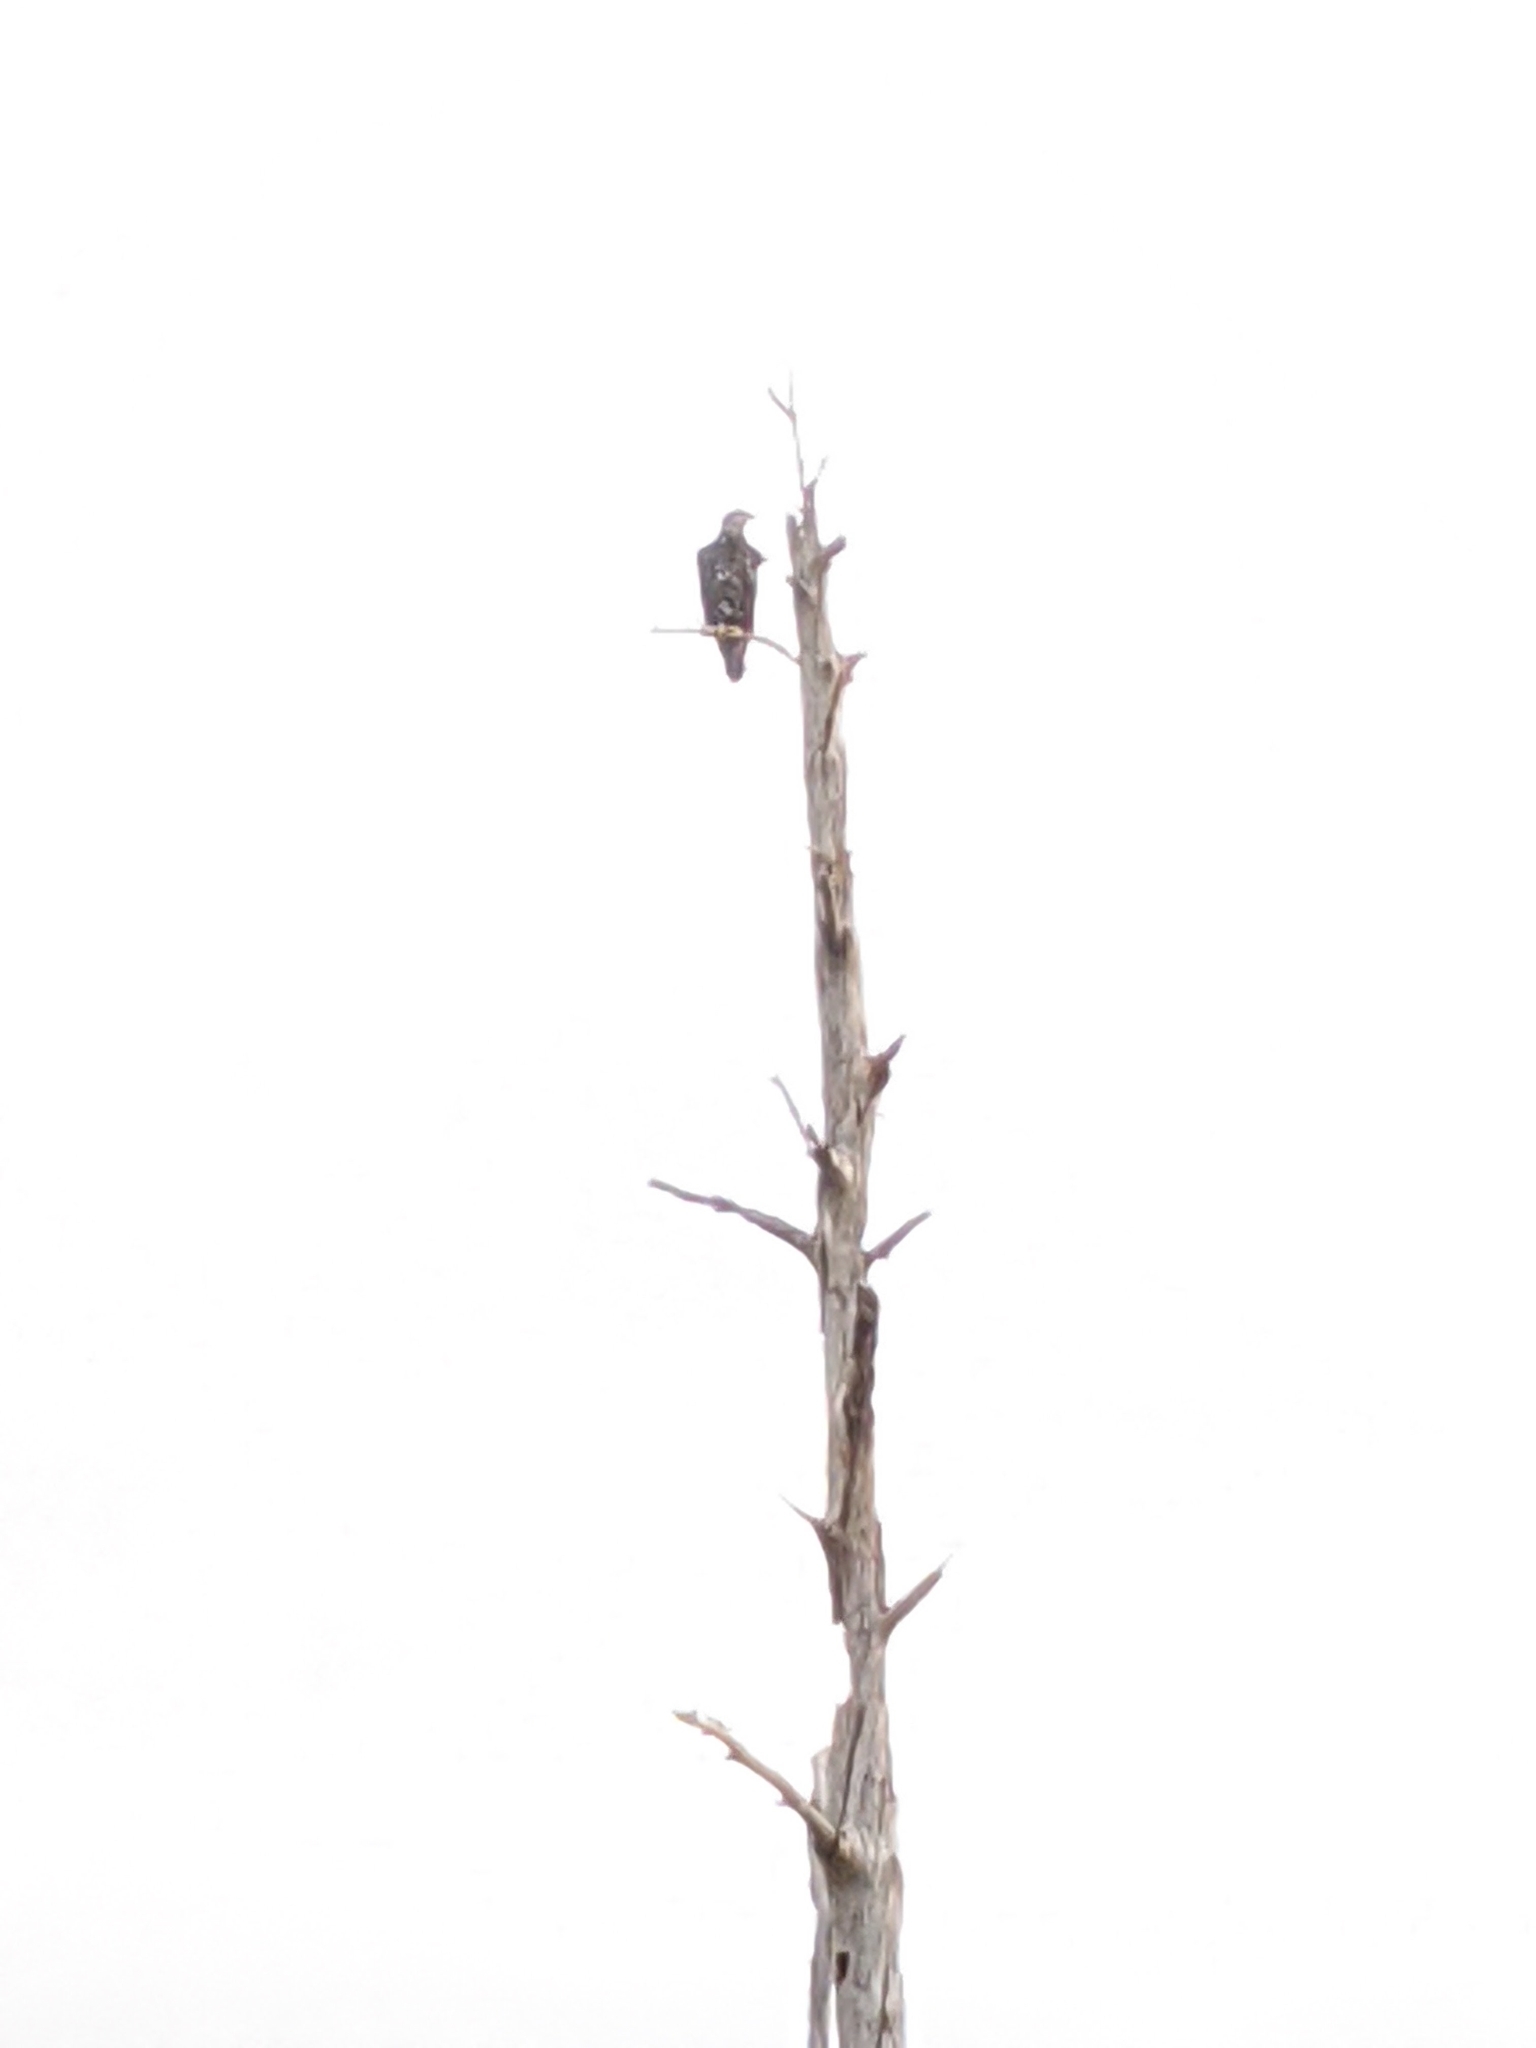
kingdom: Animalia
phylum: Chordata
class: Aves
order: Accipitriformes
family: Accipitridae
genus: Haliaeetus
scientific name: Haliaeetus leucocephalus
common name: Bald eagle
